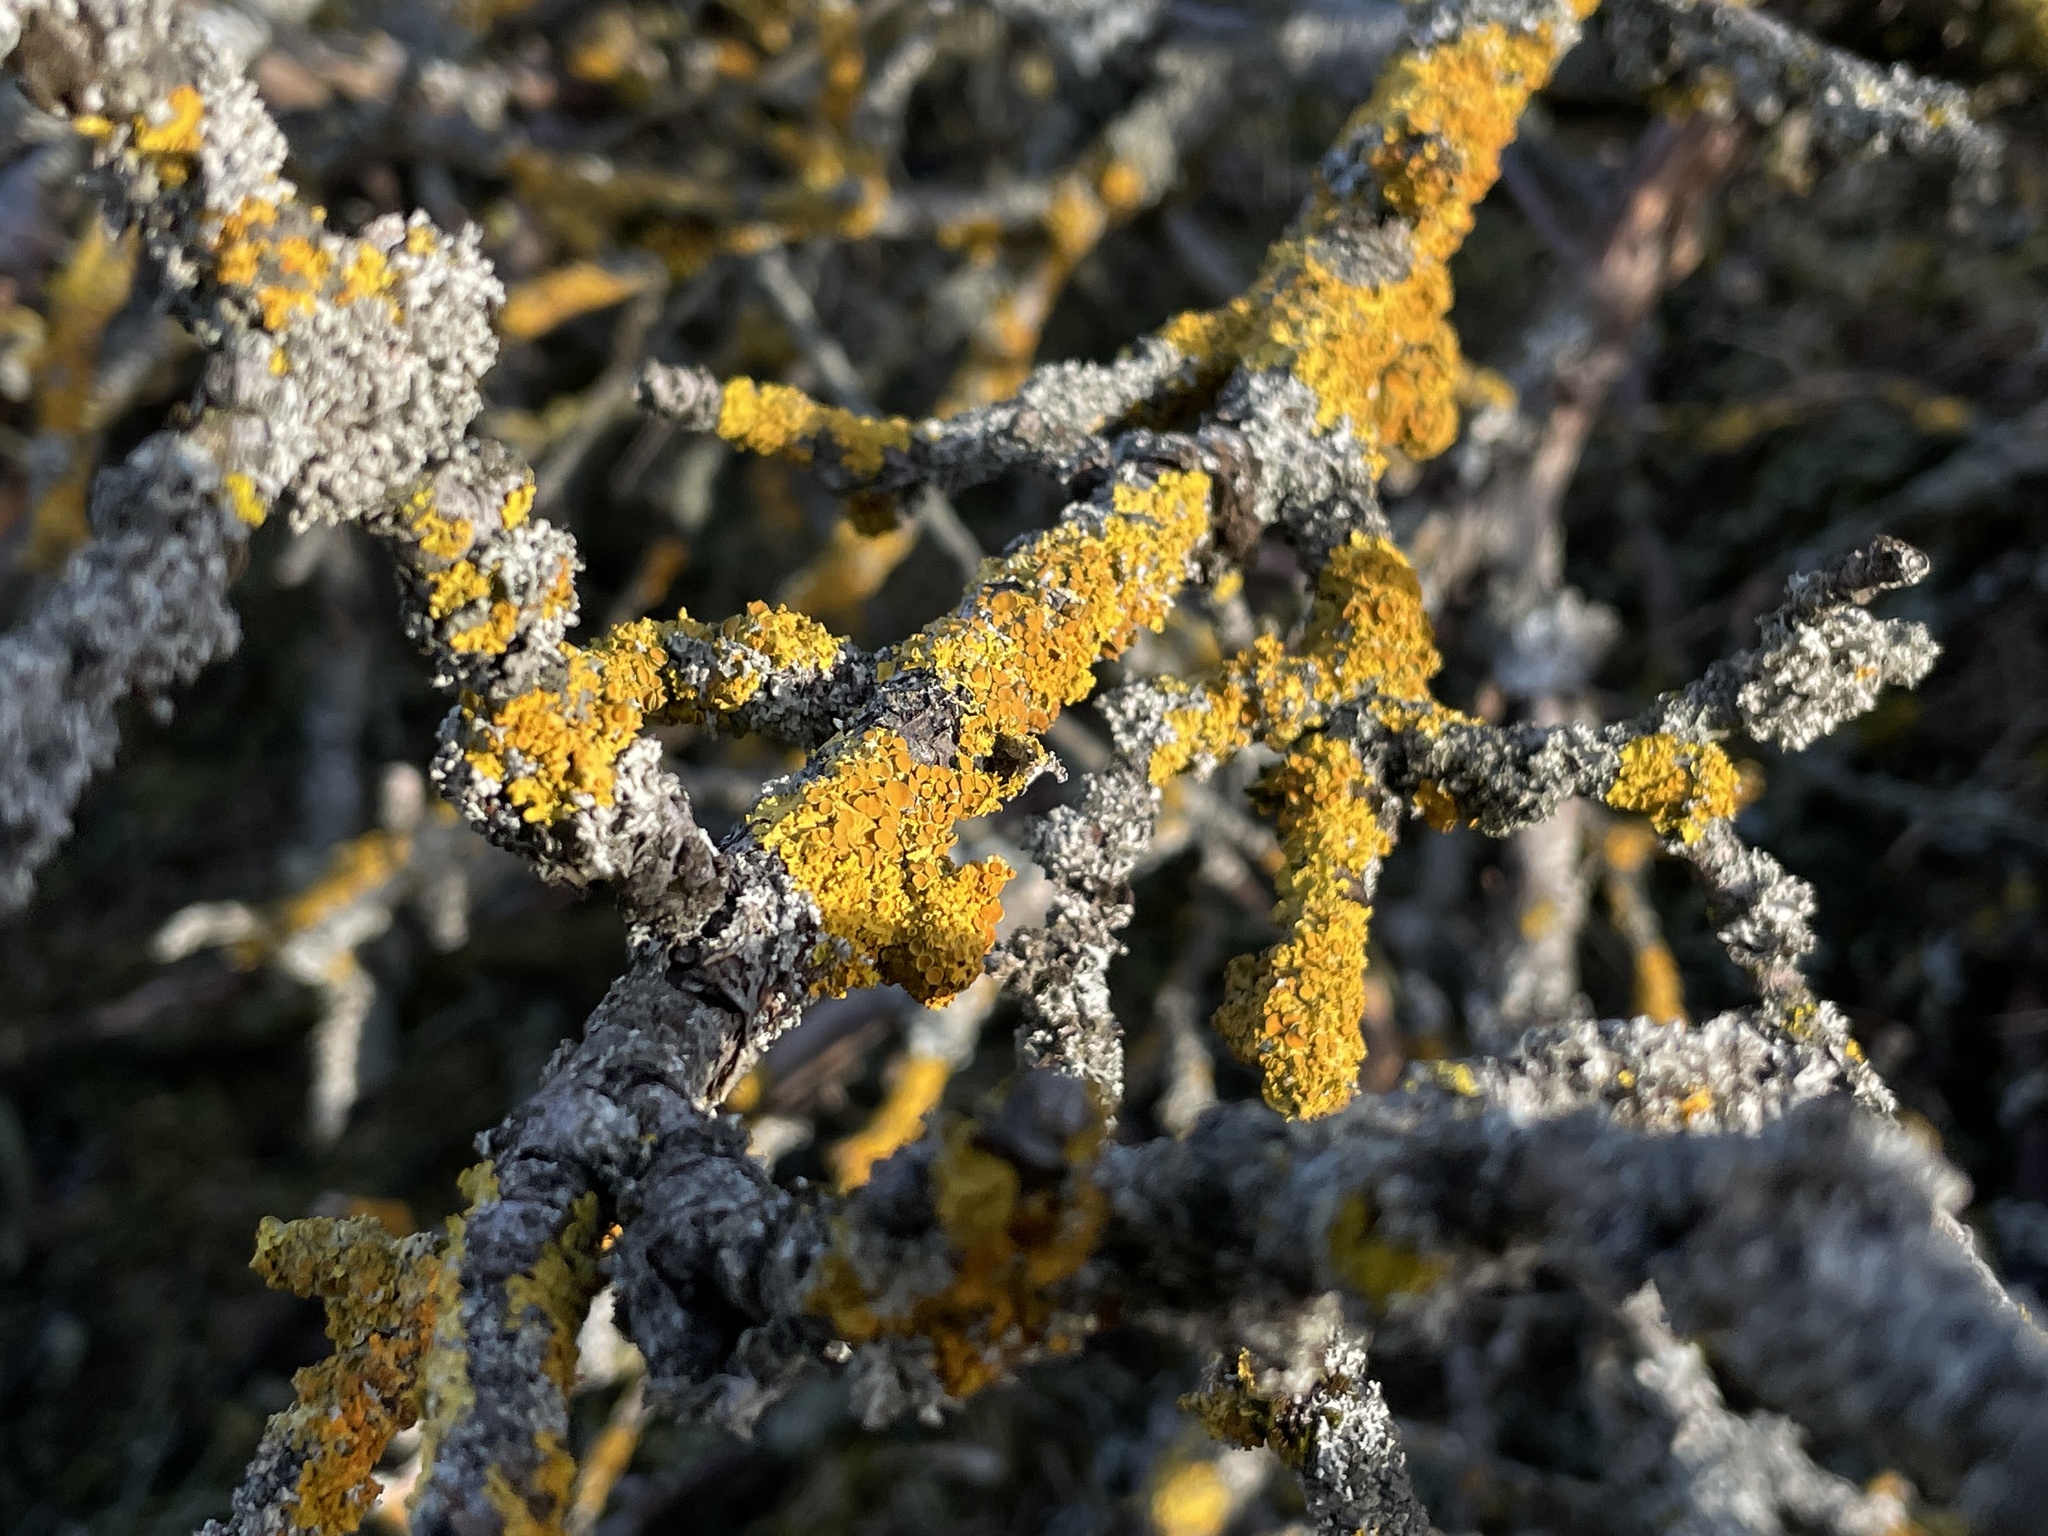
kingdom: Fungi
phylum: Ascomycota
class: Lecanoromycetes
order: Teloschistales
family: Teloschistaceae
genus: Xanthoria
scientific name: Xanthoria parietina
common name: Common orange lichen
